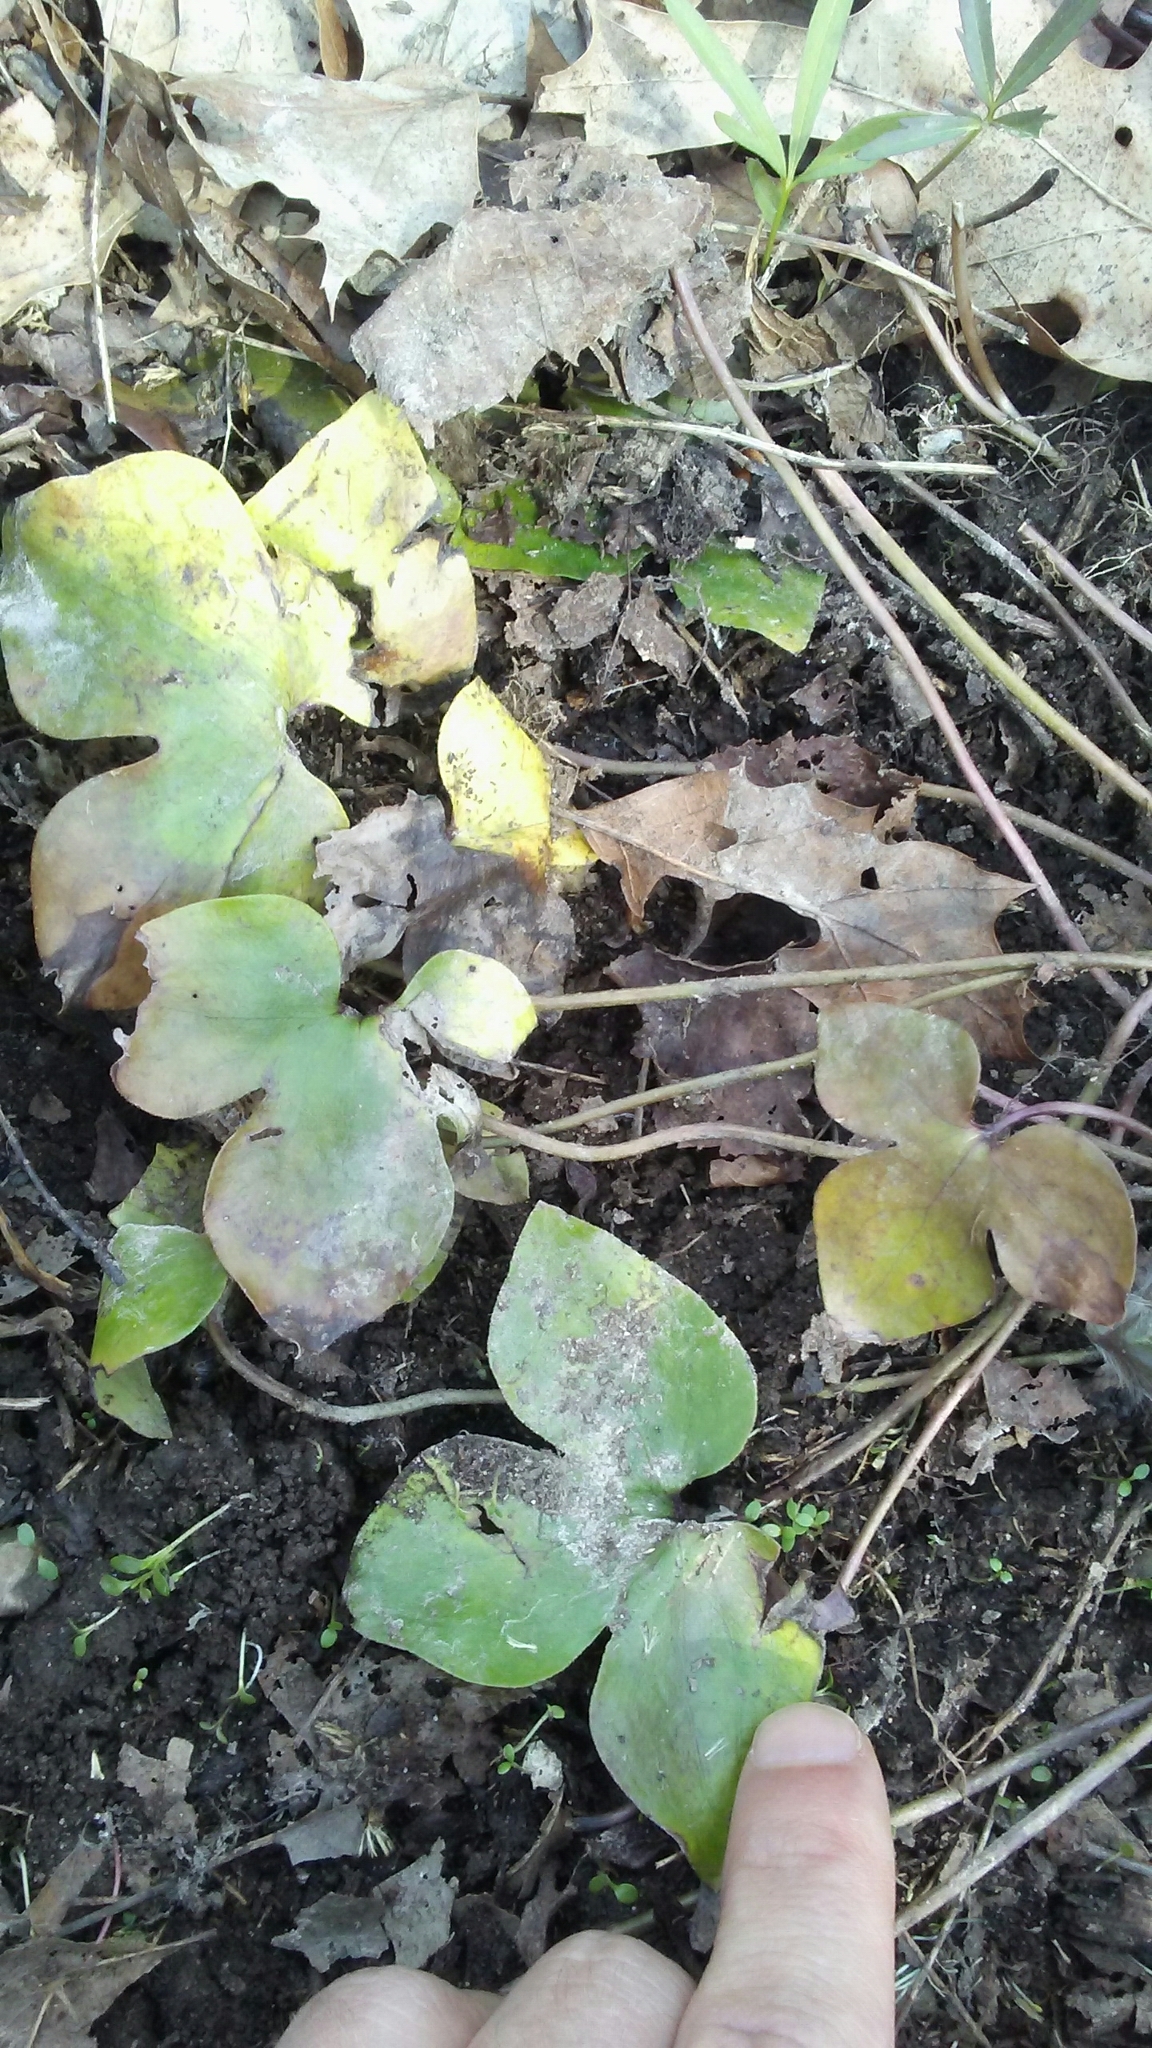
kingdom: Plantae
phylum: Tracheophyta
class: Magnoliopsida
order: Ranunculales
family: Ranunculaceae
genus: Hepatica
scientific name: Hepatica acutiloba
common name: Sharp-lobed hepatica
